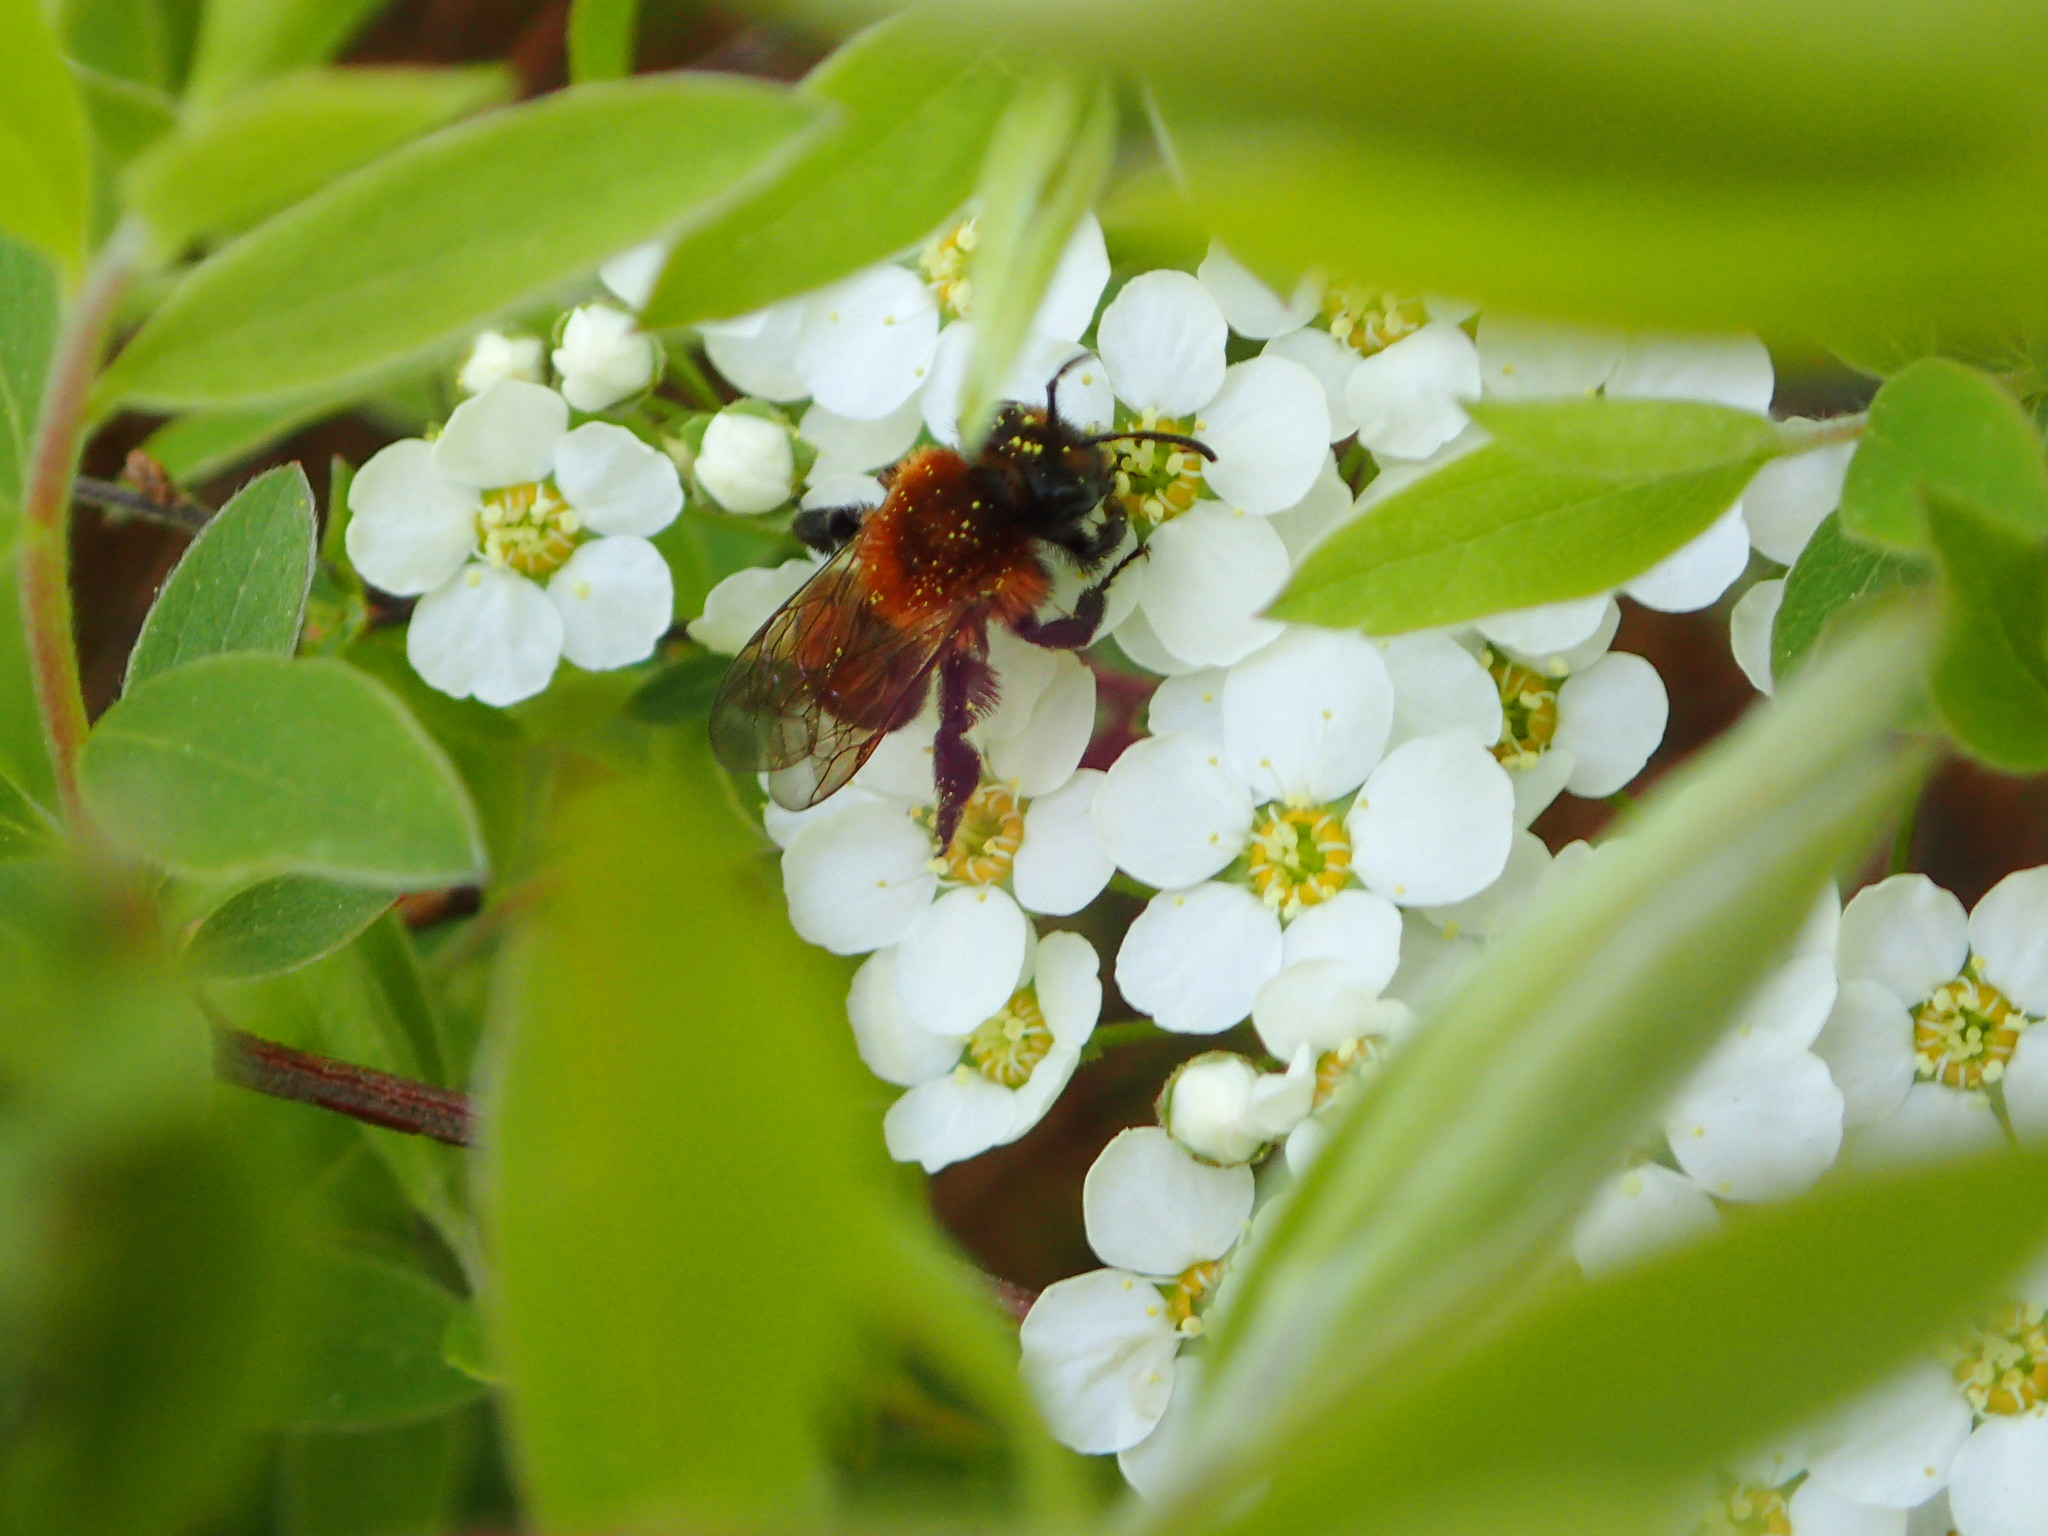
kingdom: Animalia
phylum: Arthropoda
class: Insecta
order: Hymenoptera
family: Andrenidae
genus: Andrena
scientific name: Andrena milwaukeensis
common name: Milwaukee mining bee
